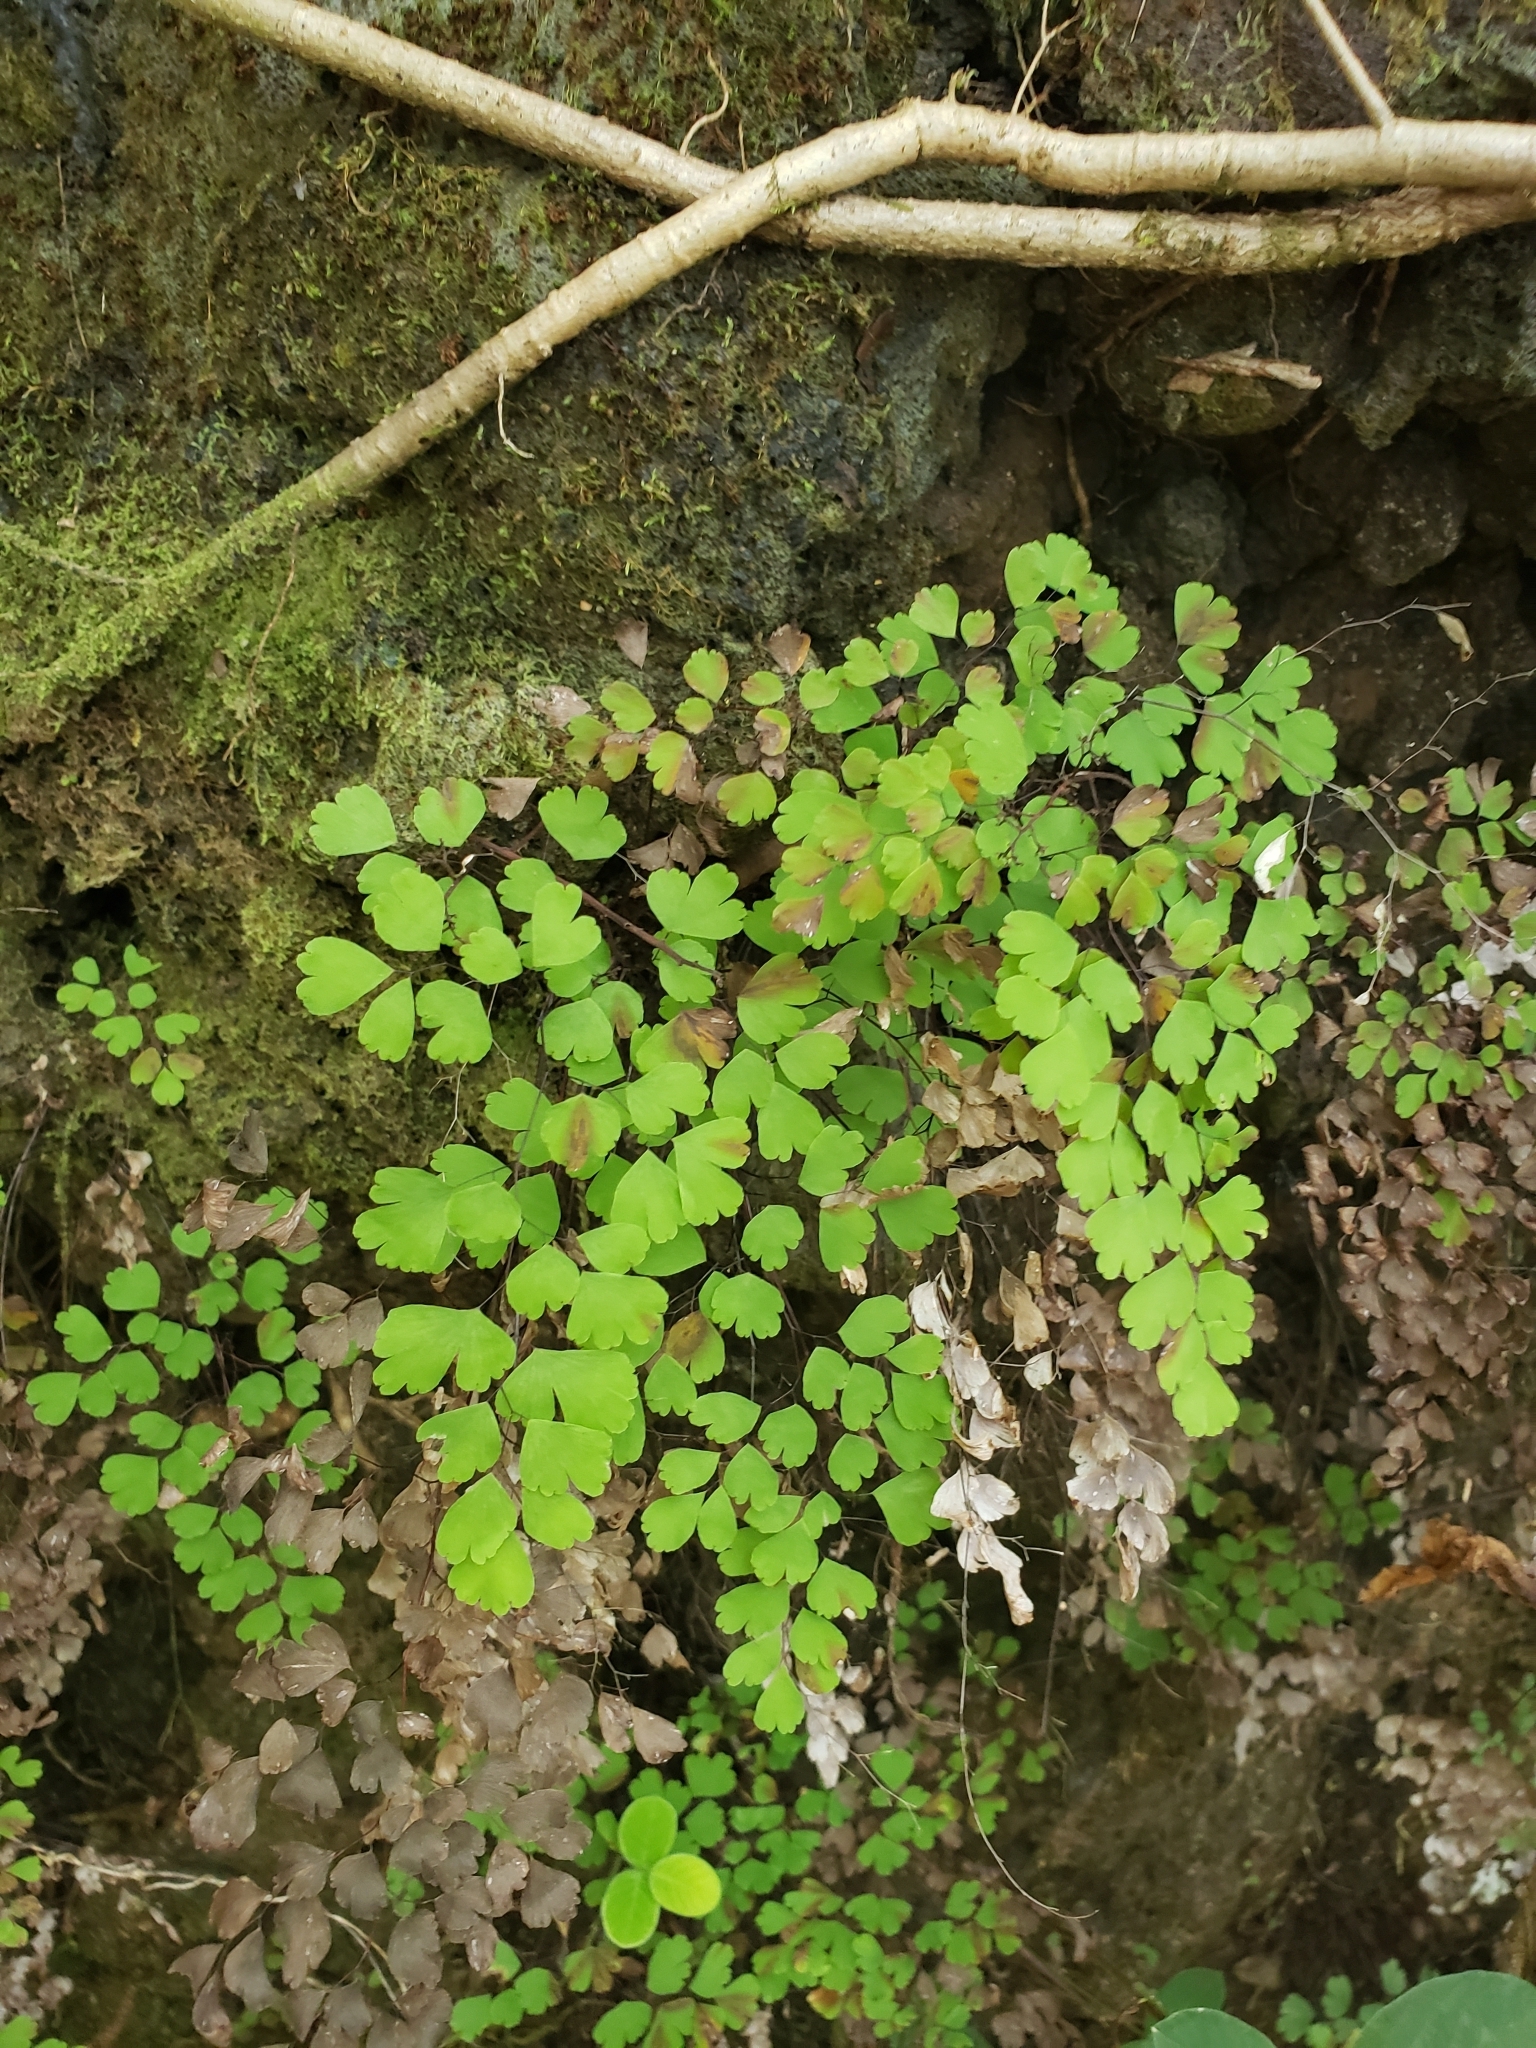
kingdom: Plantae
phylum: Tracheophyta
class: Polypodiopsida
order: Polypodiales
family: Pteridaceae
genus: Adiantum
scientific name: Adiantum raddianum
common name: Delta maidenhair fern
